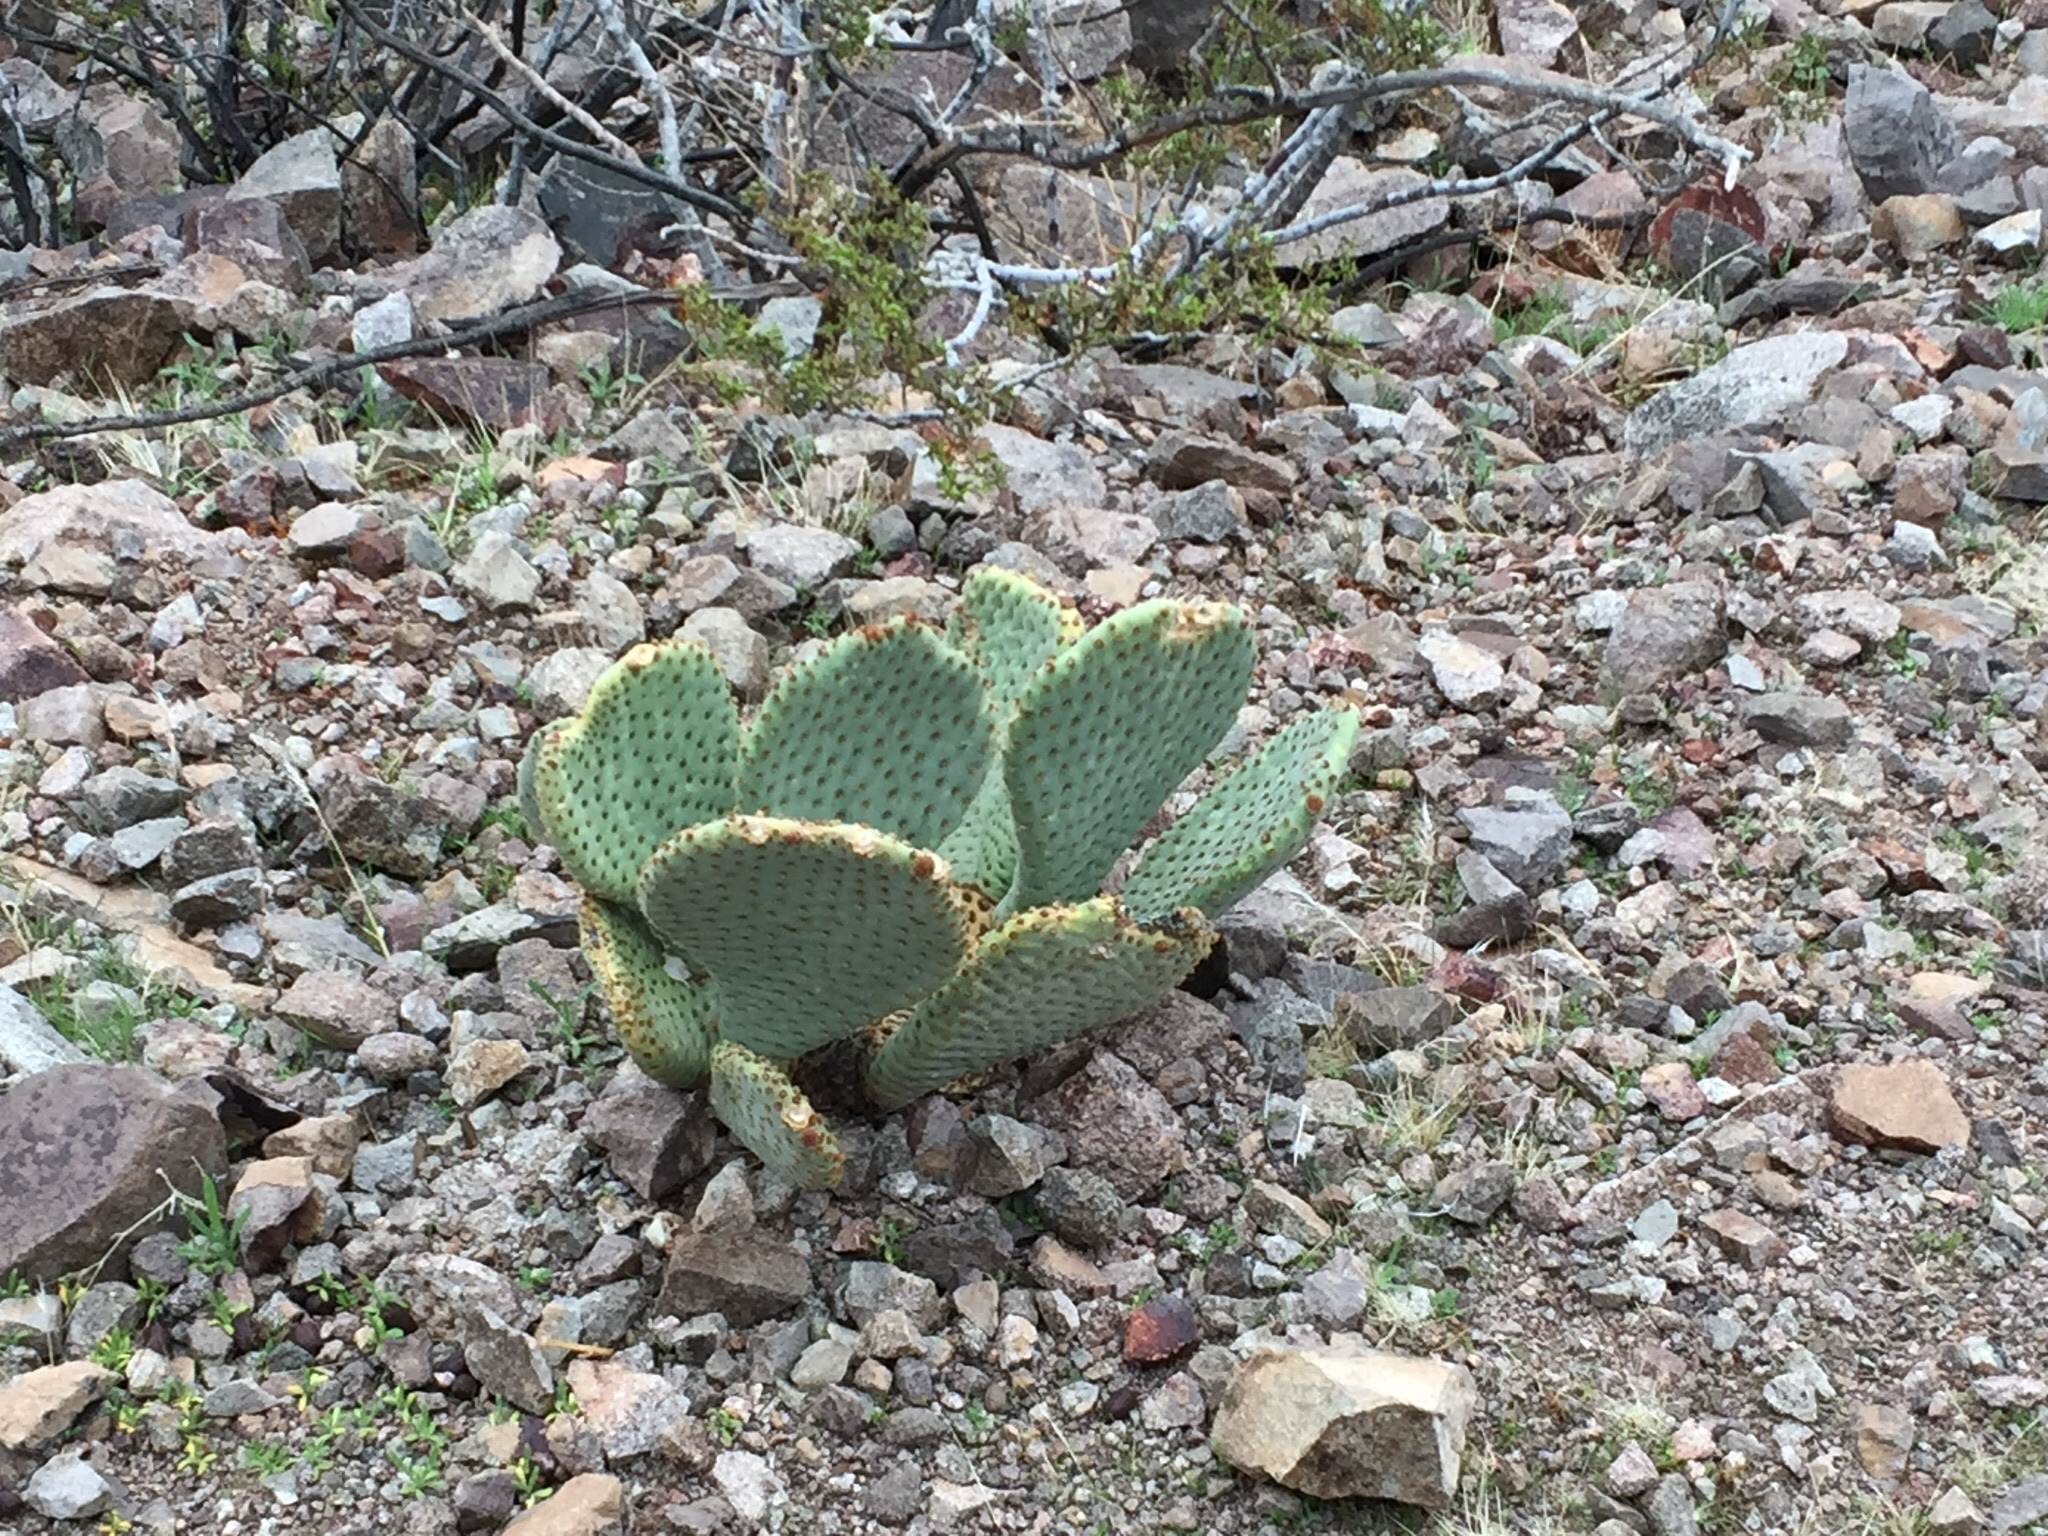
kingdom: Plantae
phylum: Tracheophyta
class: Magnoliopsida
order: Caryophyllales
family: Cactaceae
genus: Opuntia
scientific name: Opuntia basilaris
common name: Beavertail prickly-pear
